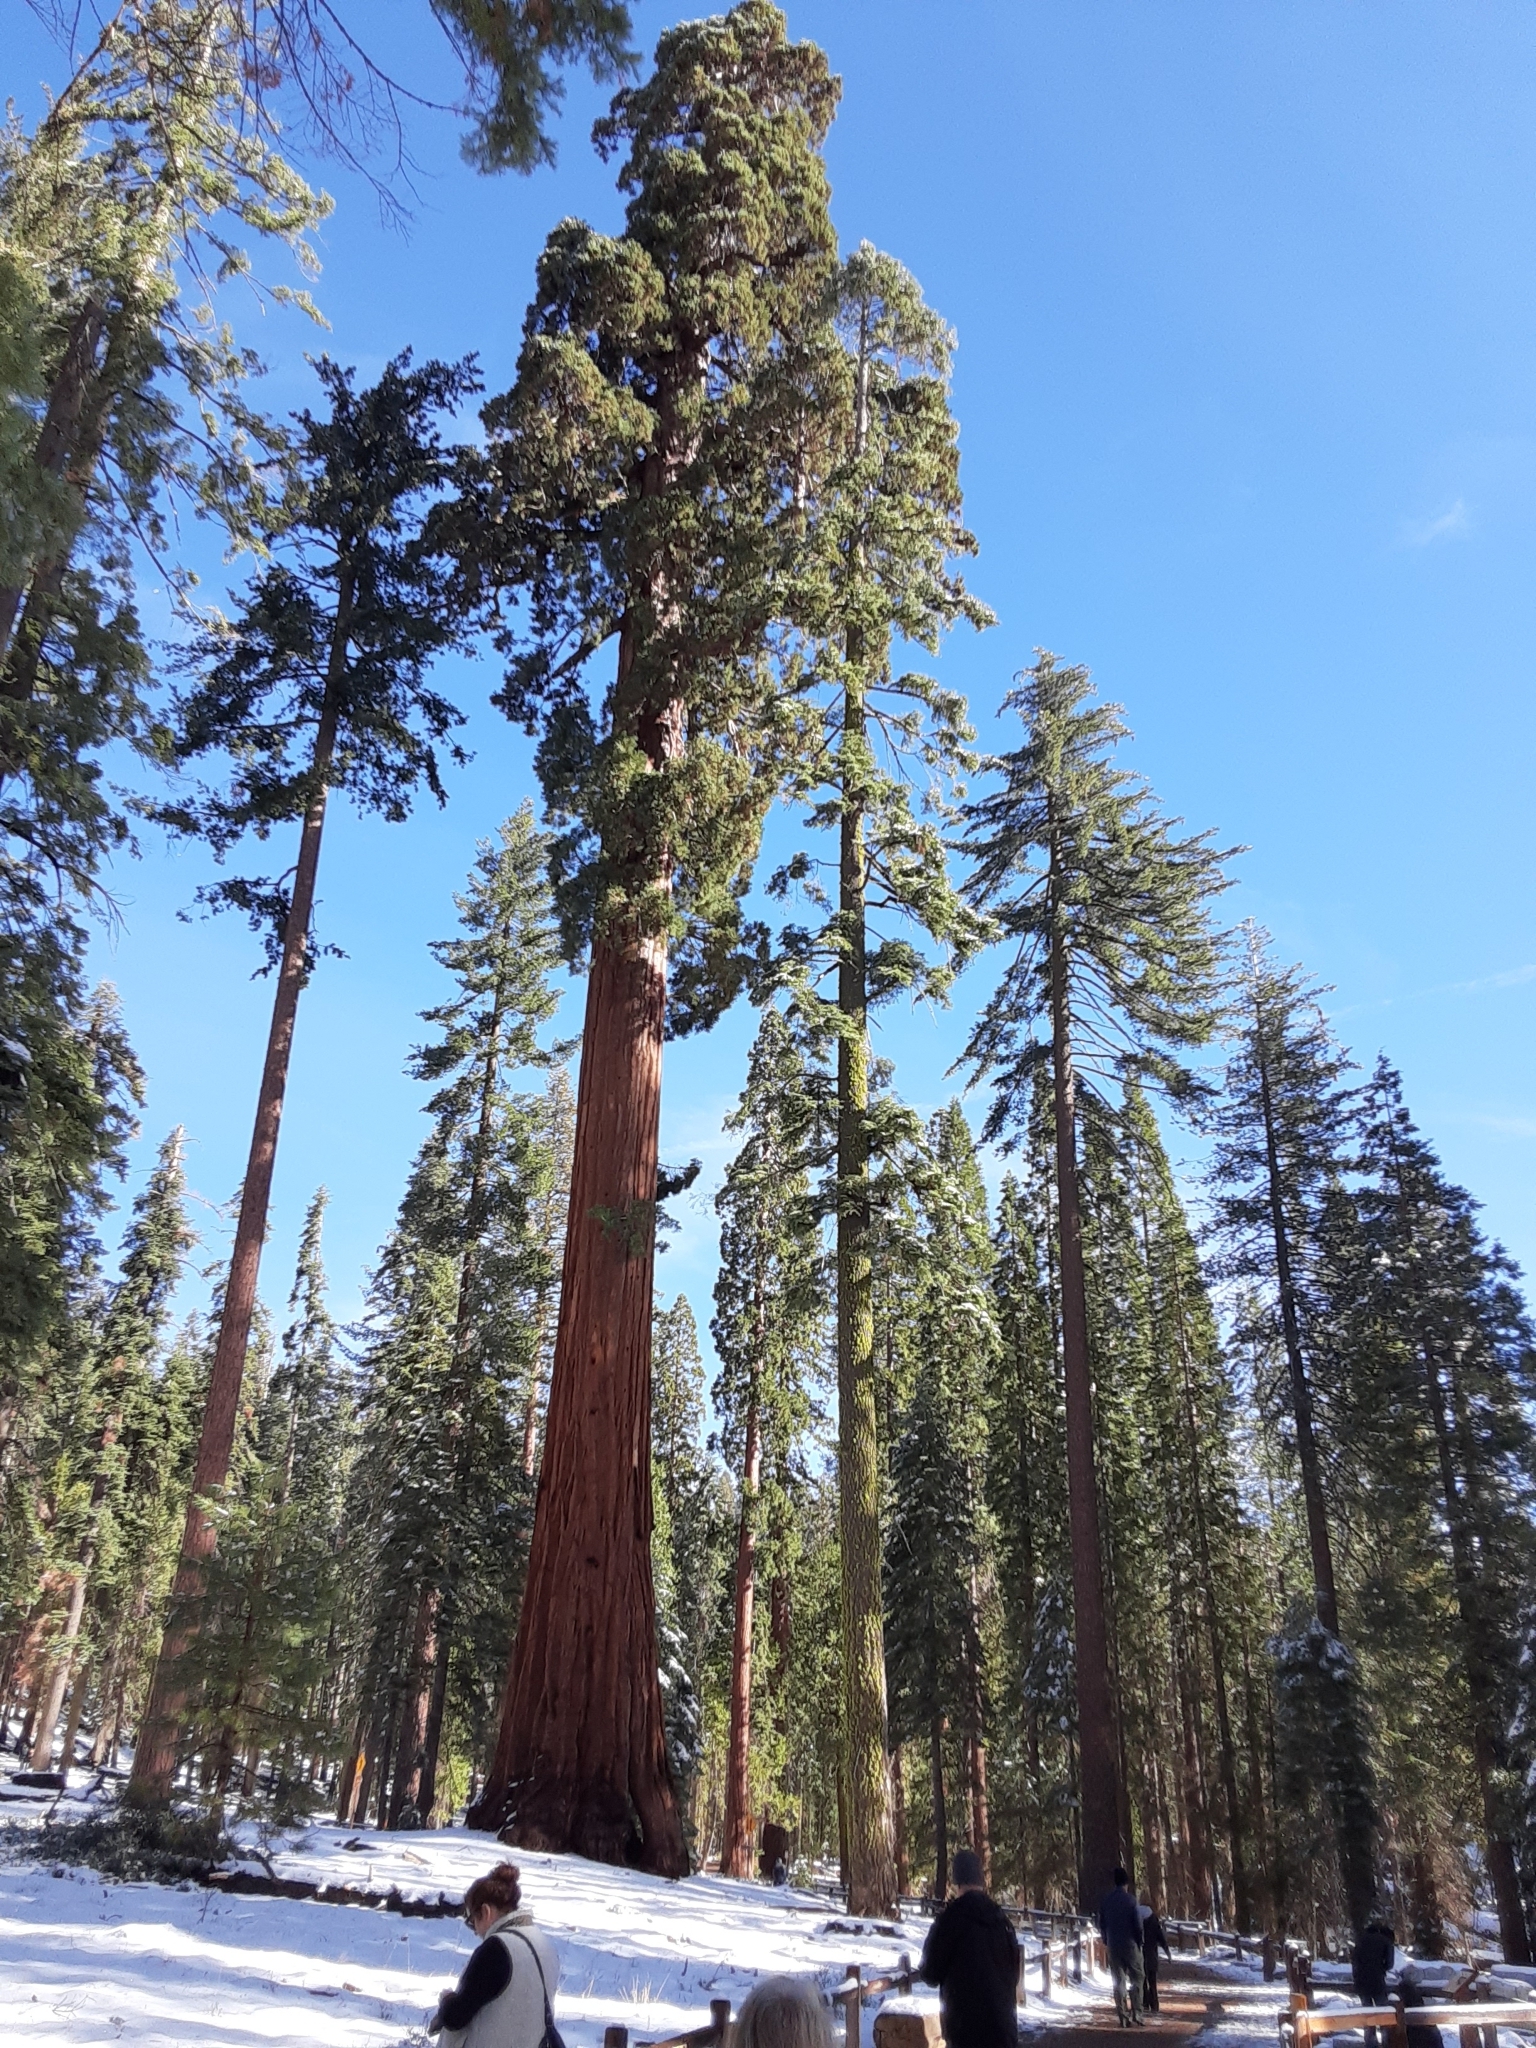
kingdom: Plantae
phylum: Tracheophyta
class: Pinopsida
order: Pinales
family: Cupressaceae
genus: Sequoiadendron
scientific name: Sequoiadendron giganteum
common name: Wellingtonia
